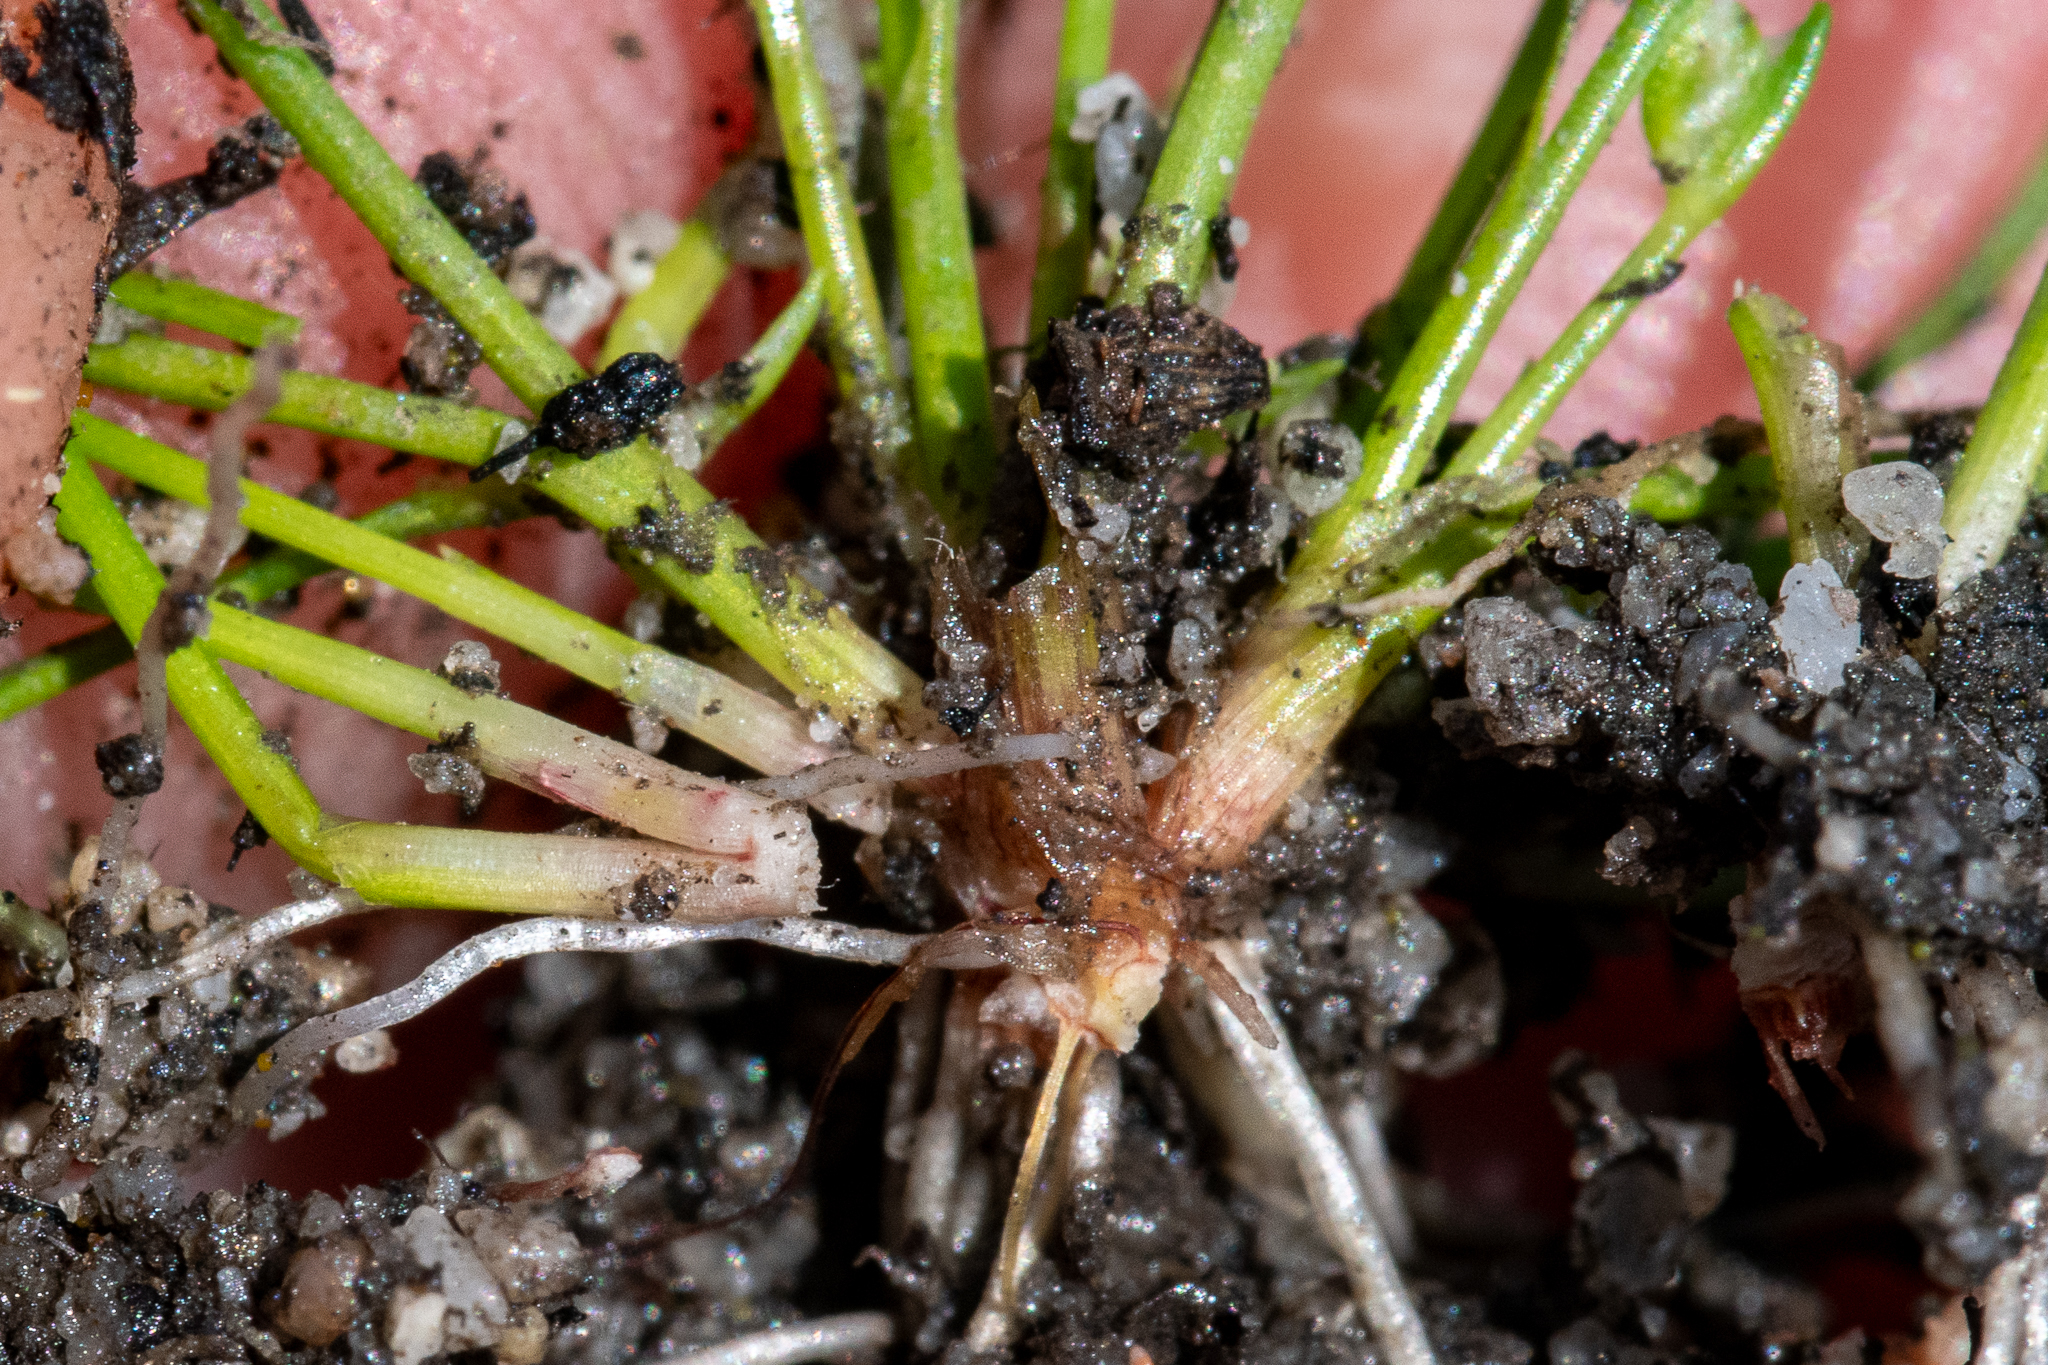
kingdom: Plantae
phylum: Tracheophyta
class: Liliopsida
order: Poales
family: Cyperaceae
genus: Isolepis
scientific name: Isolepis levynsiana
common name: Sedge
